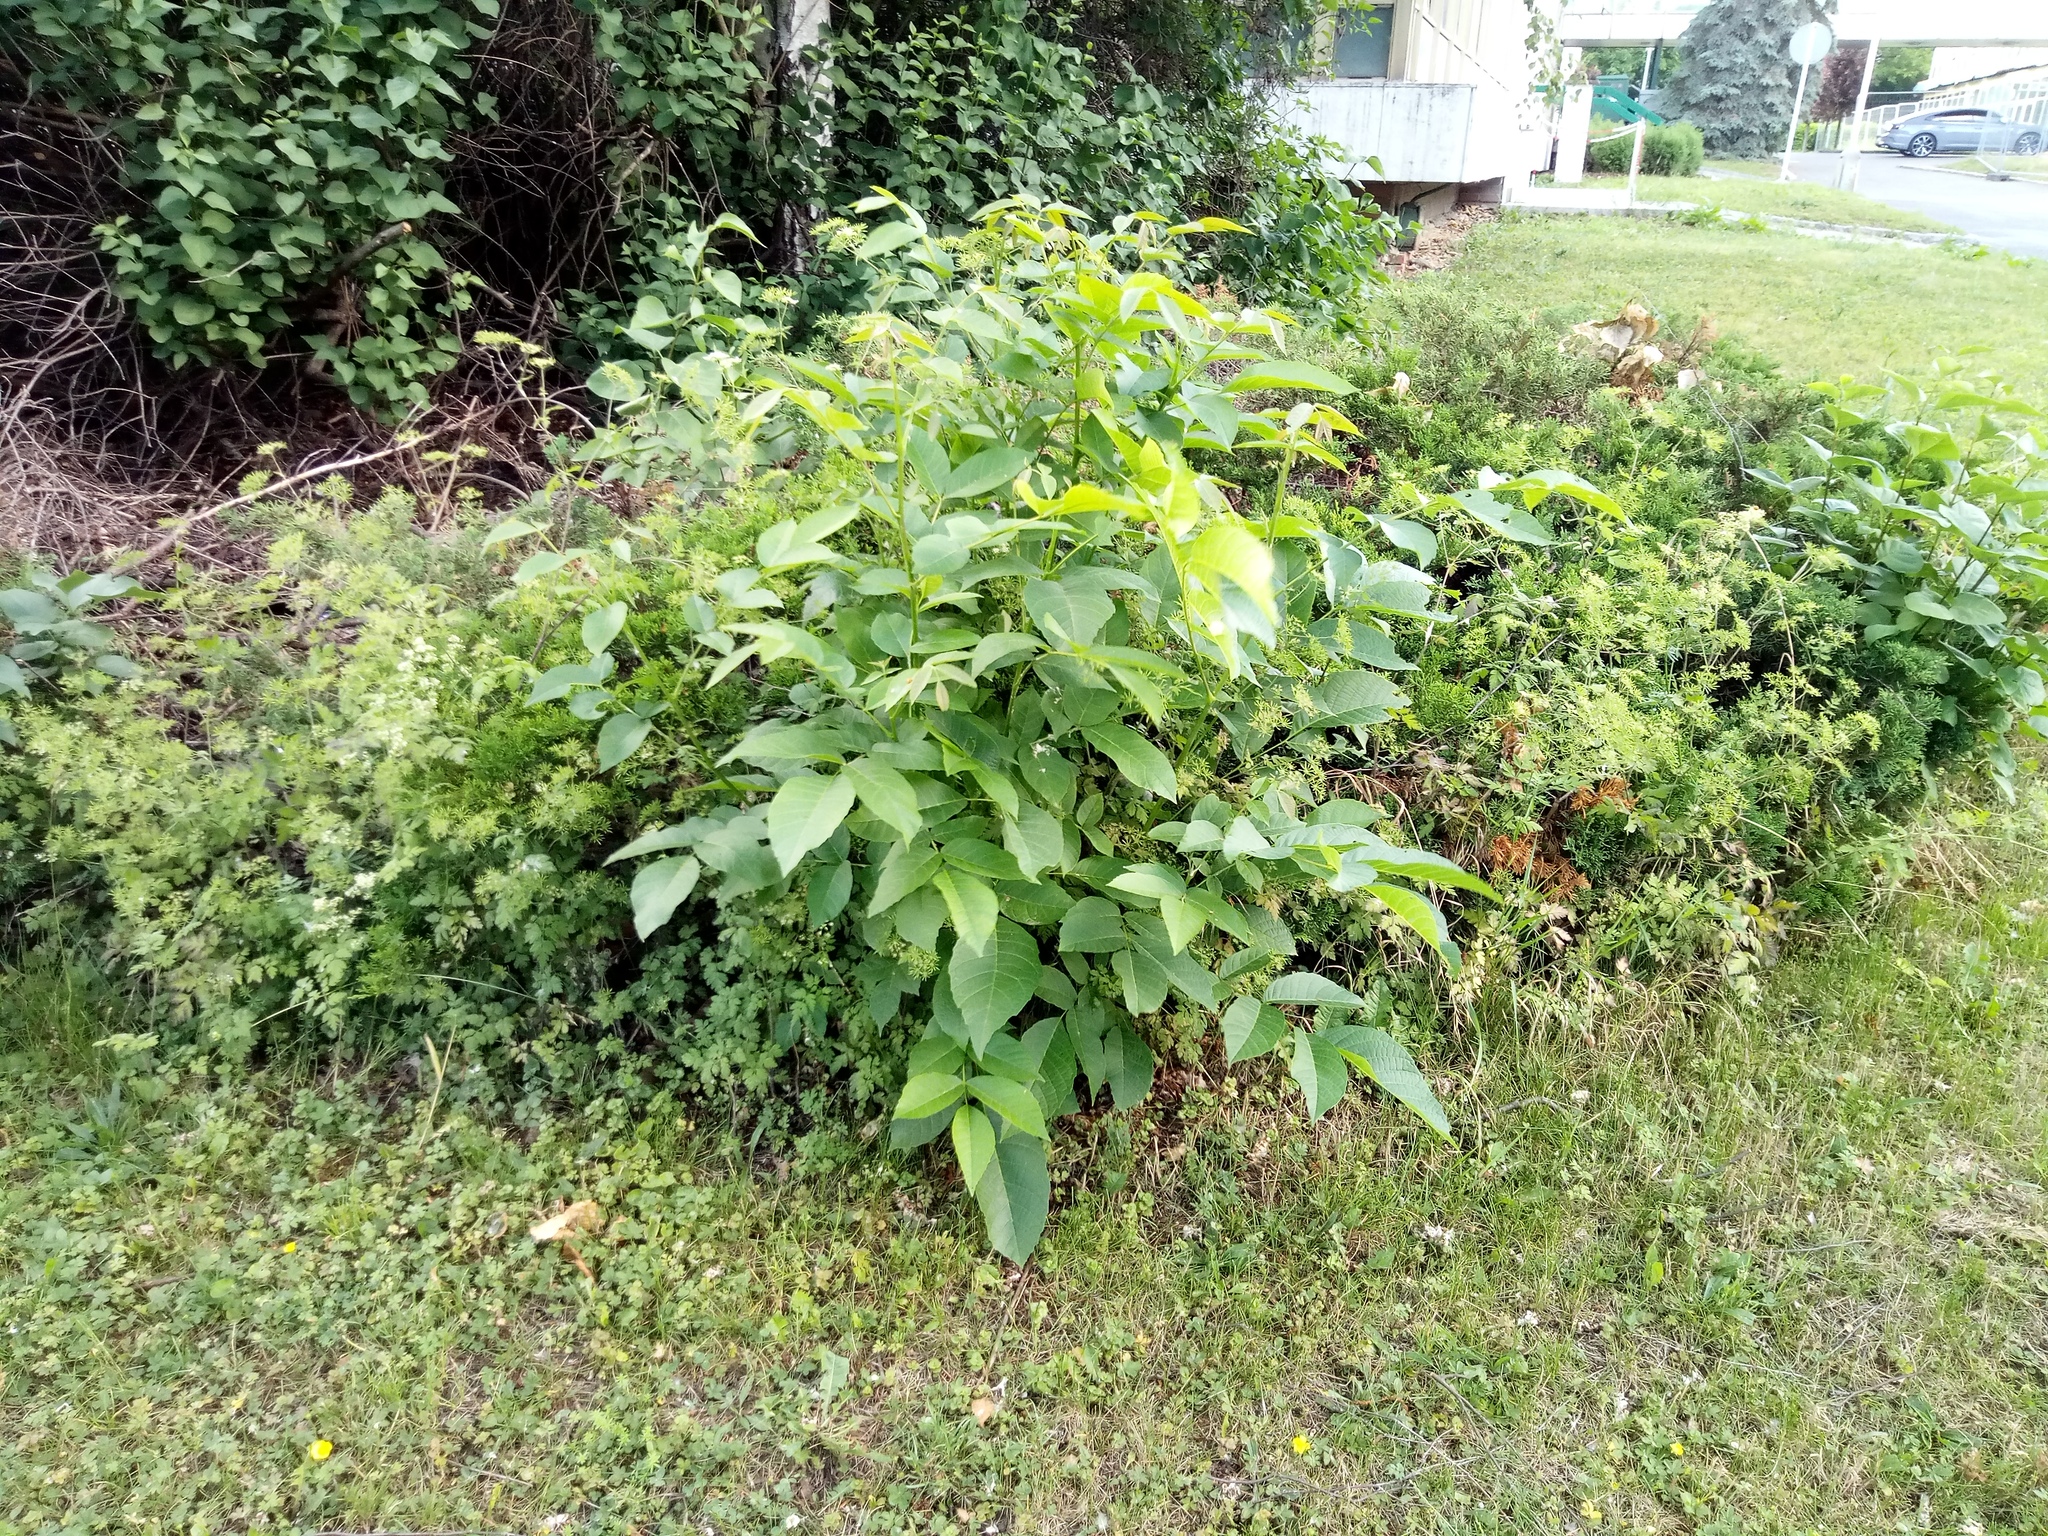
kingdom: Plantae
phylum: Tracheophyta
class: Magnoliopsida
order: Fagales
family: Juglandaceae
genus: Juglans
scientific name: Juglans regia
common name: Walnut
